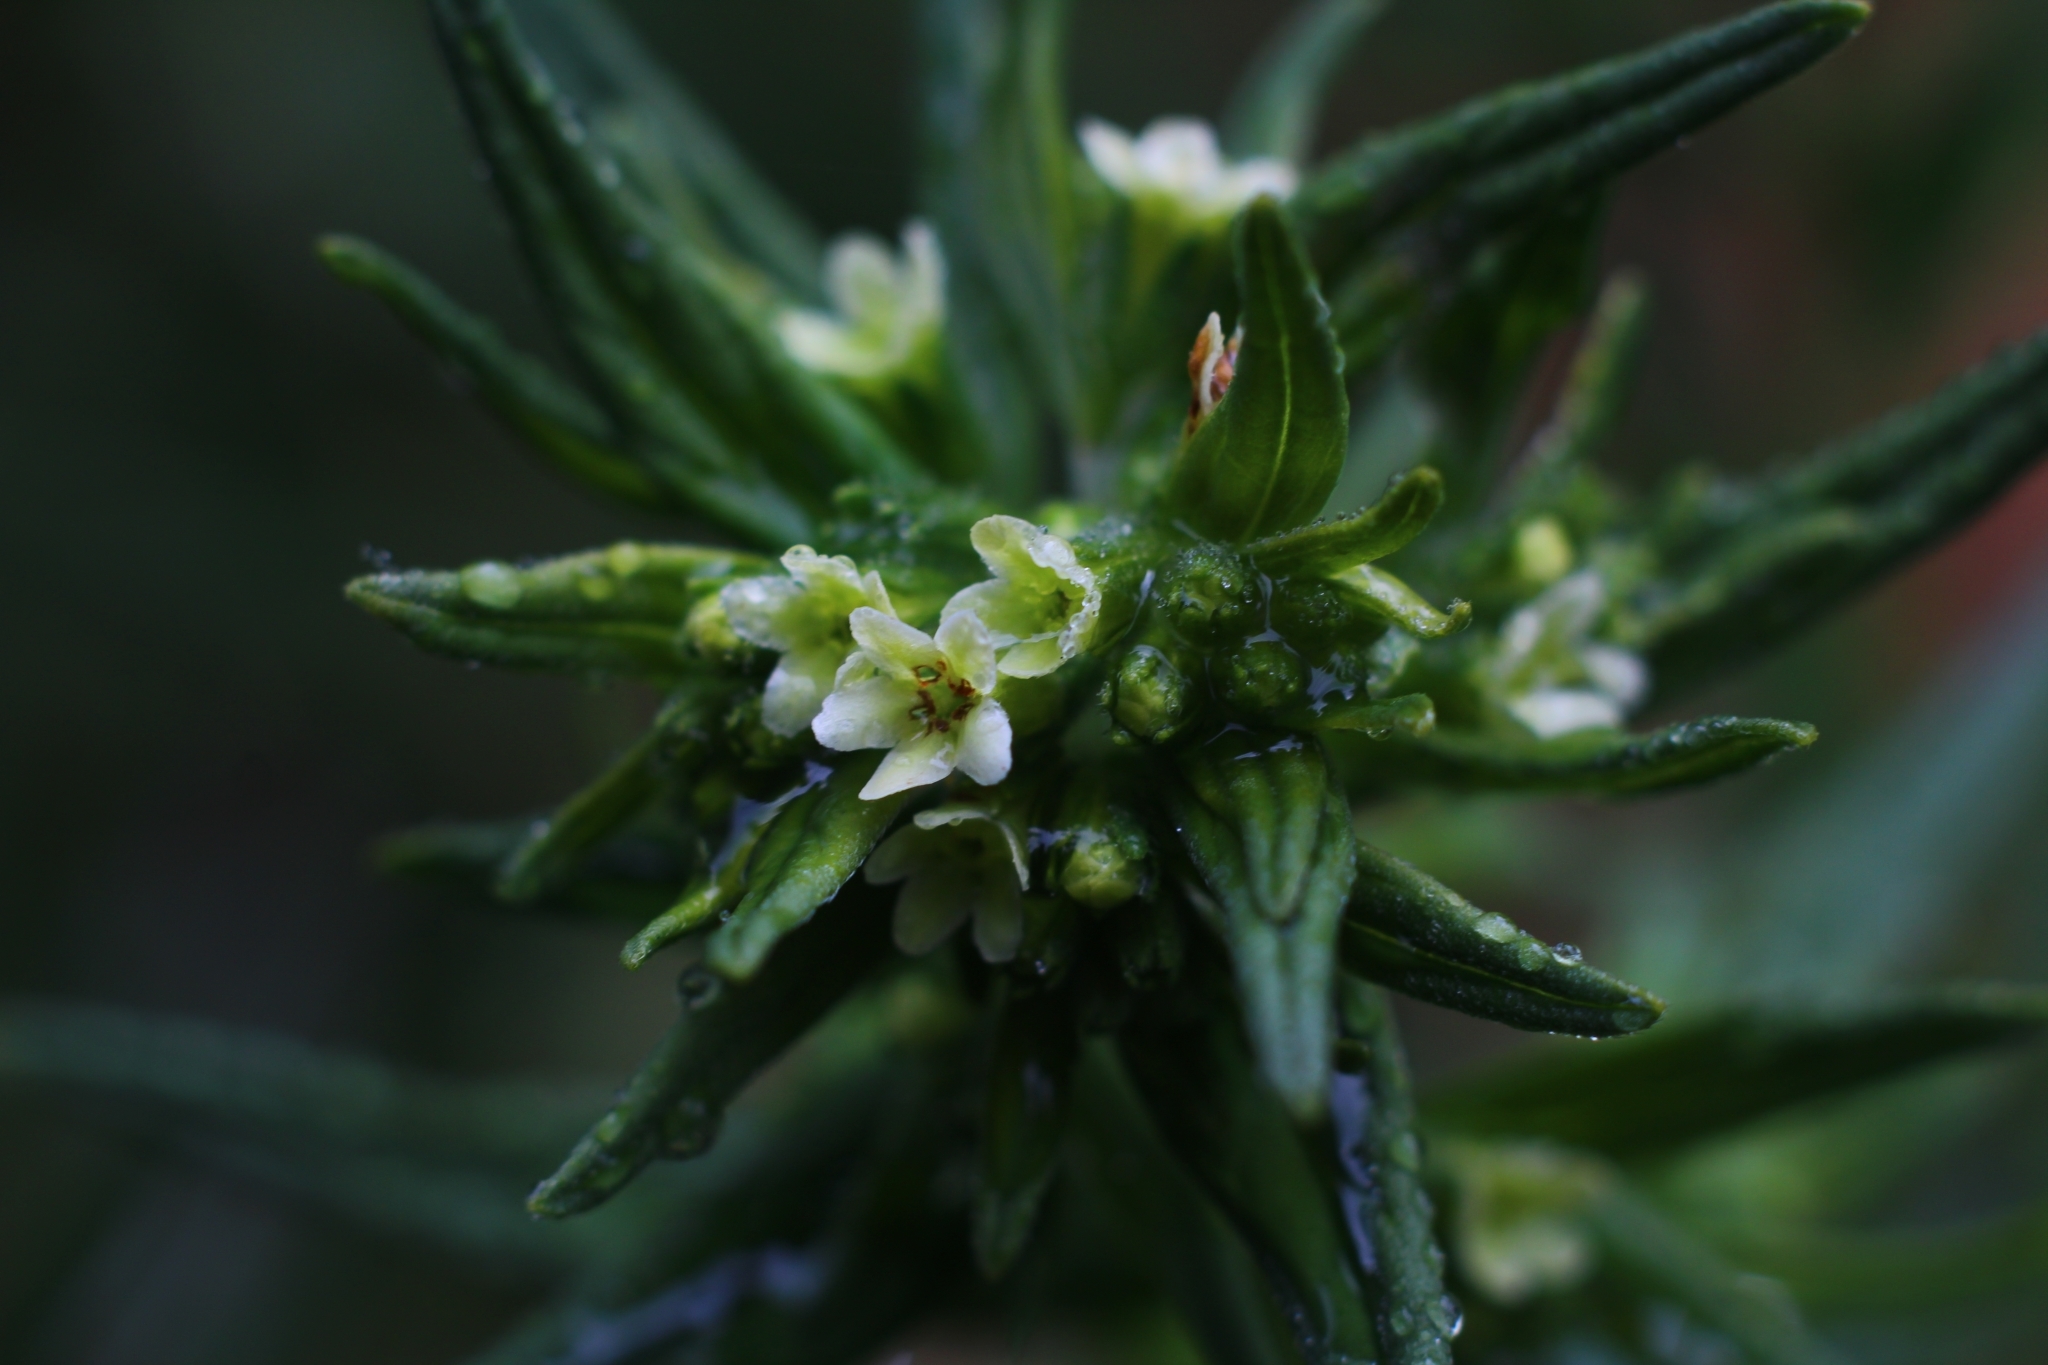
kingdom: Plantae
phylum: Tracheophyta
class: Magnoliopsida
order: Boraginales
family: Boraginaceae
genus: Buglossoides
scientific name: Buglossoides arvensis
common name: Corn gromwell
